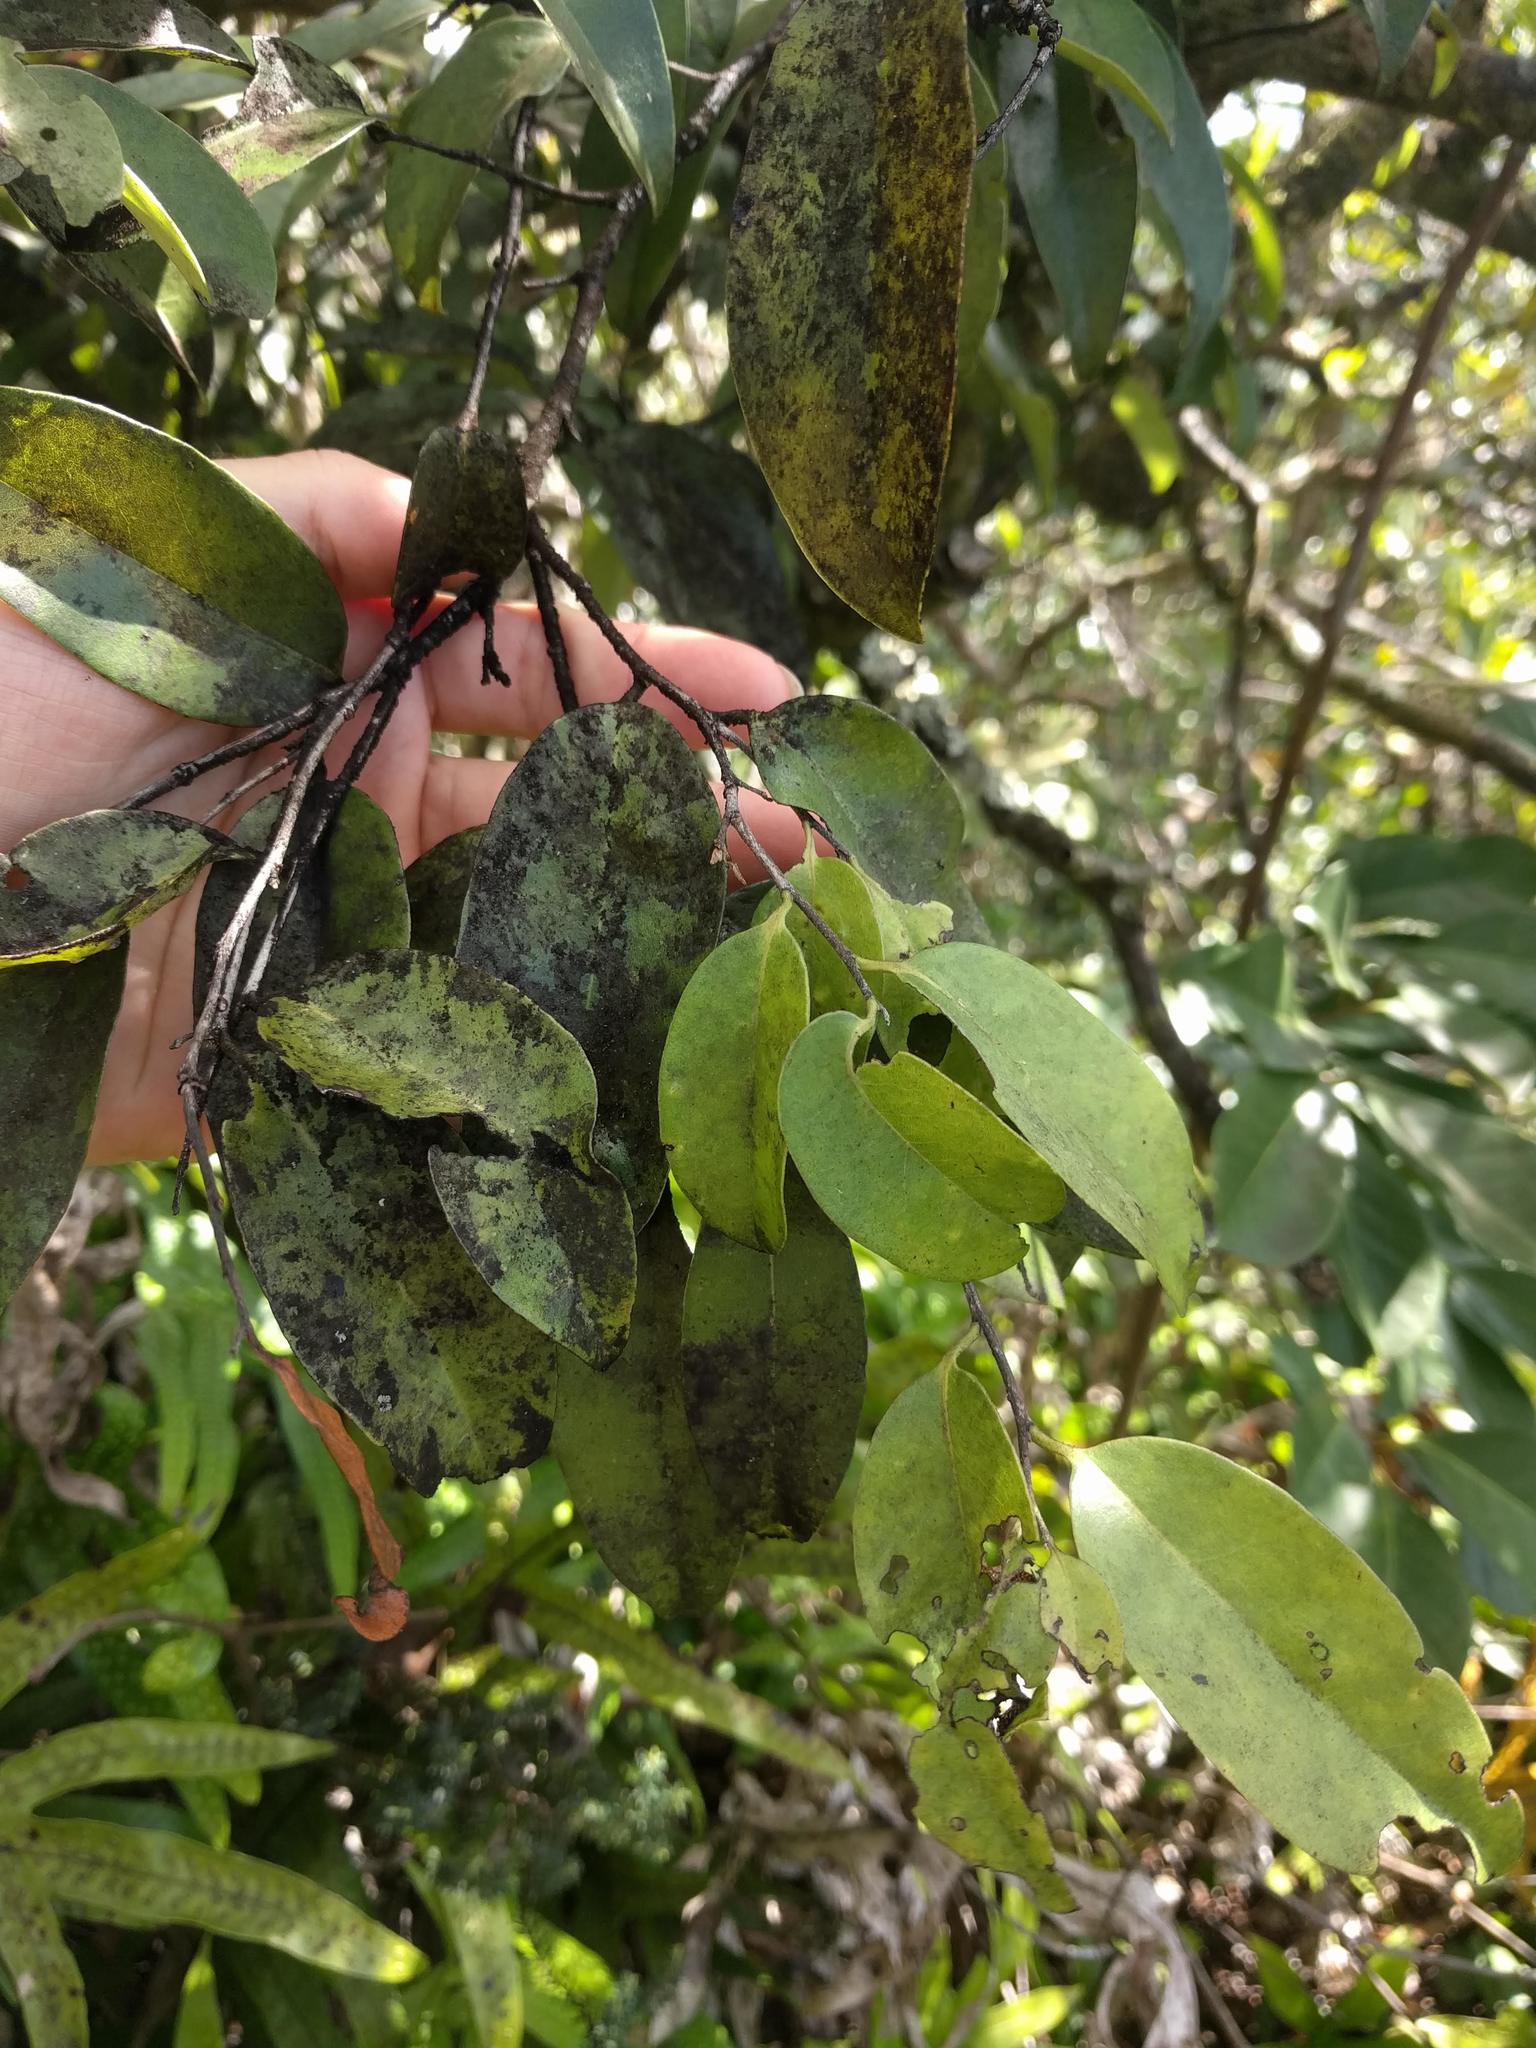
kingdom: Plantae
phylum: Tracheophyta
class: Magnoliopsida
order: Ericales
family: Ebenaceae
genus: Diospyros
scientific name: Diospyros sandwicensis
